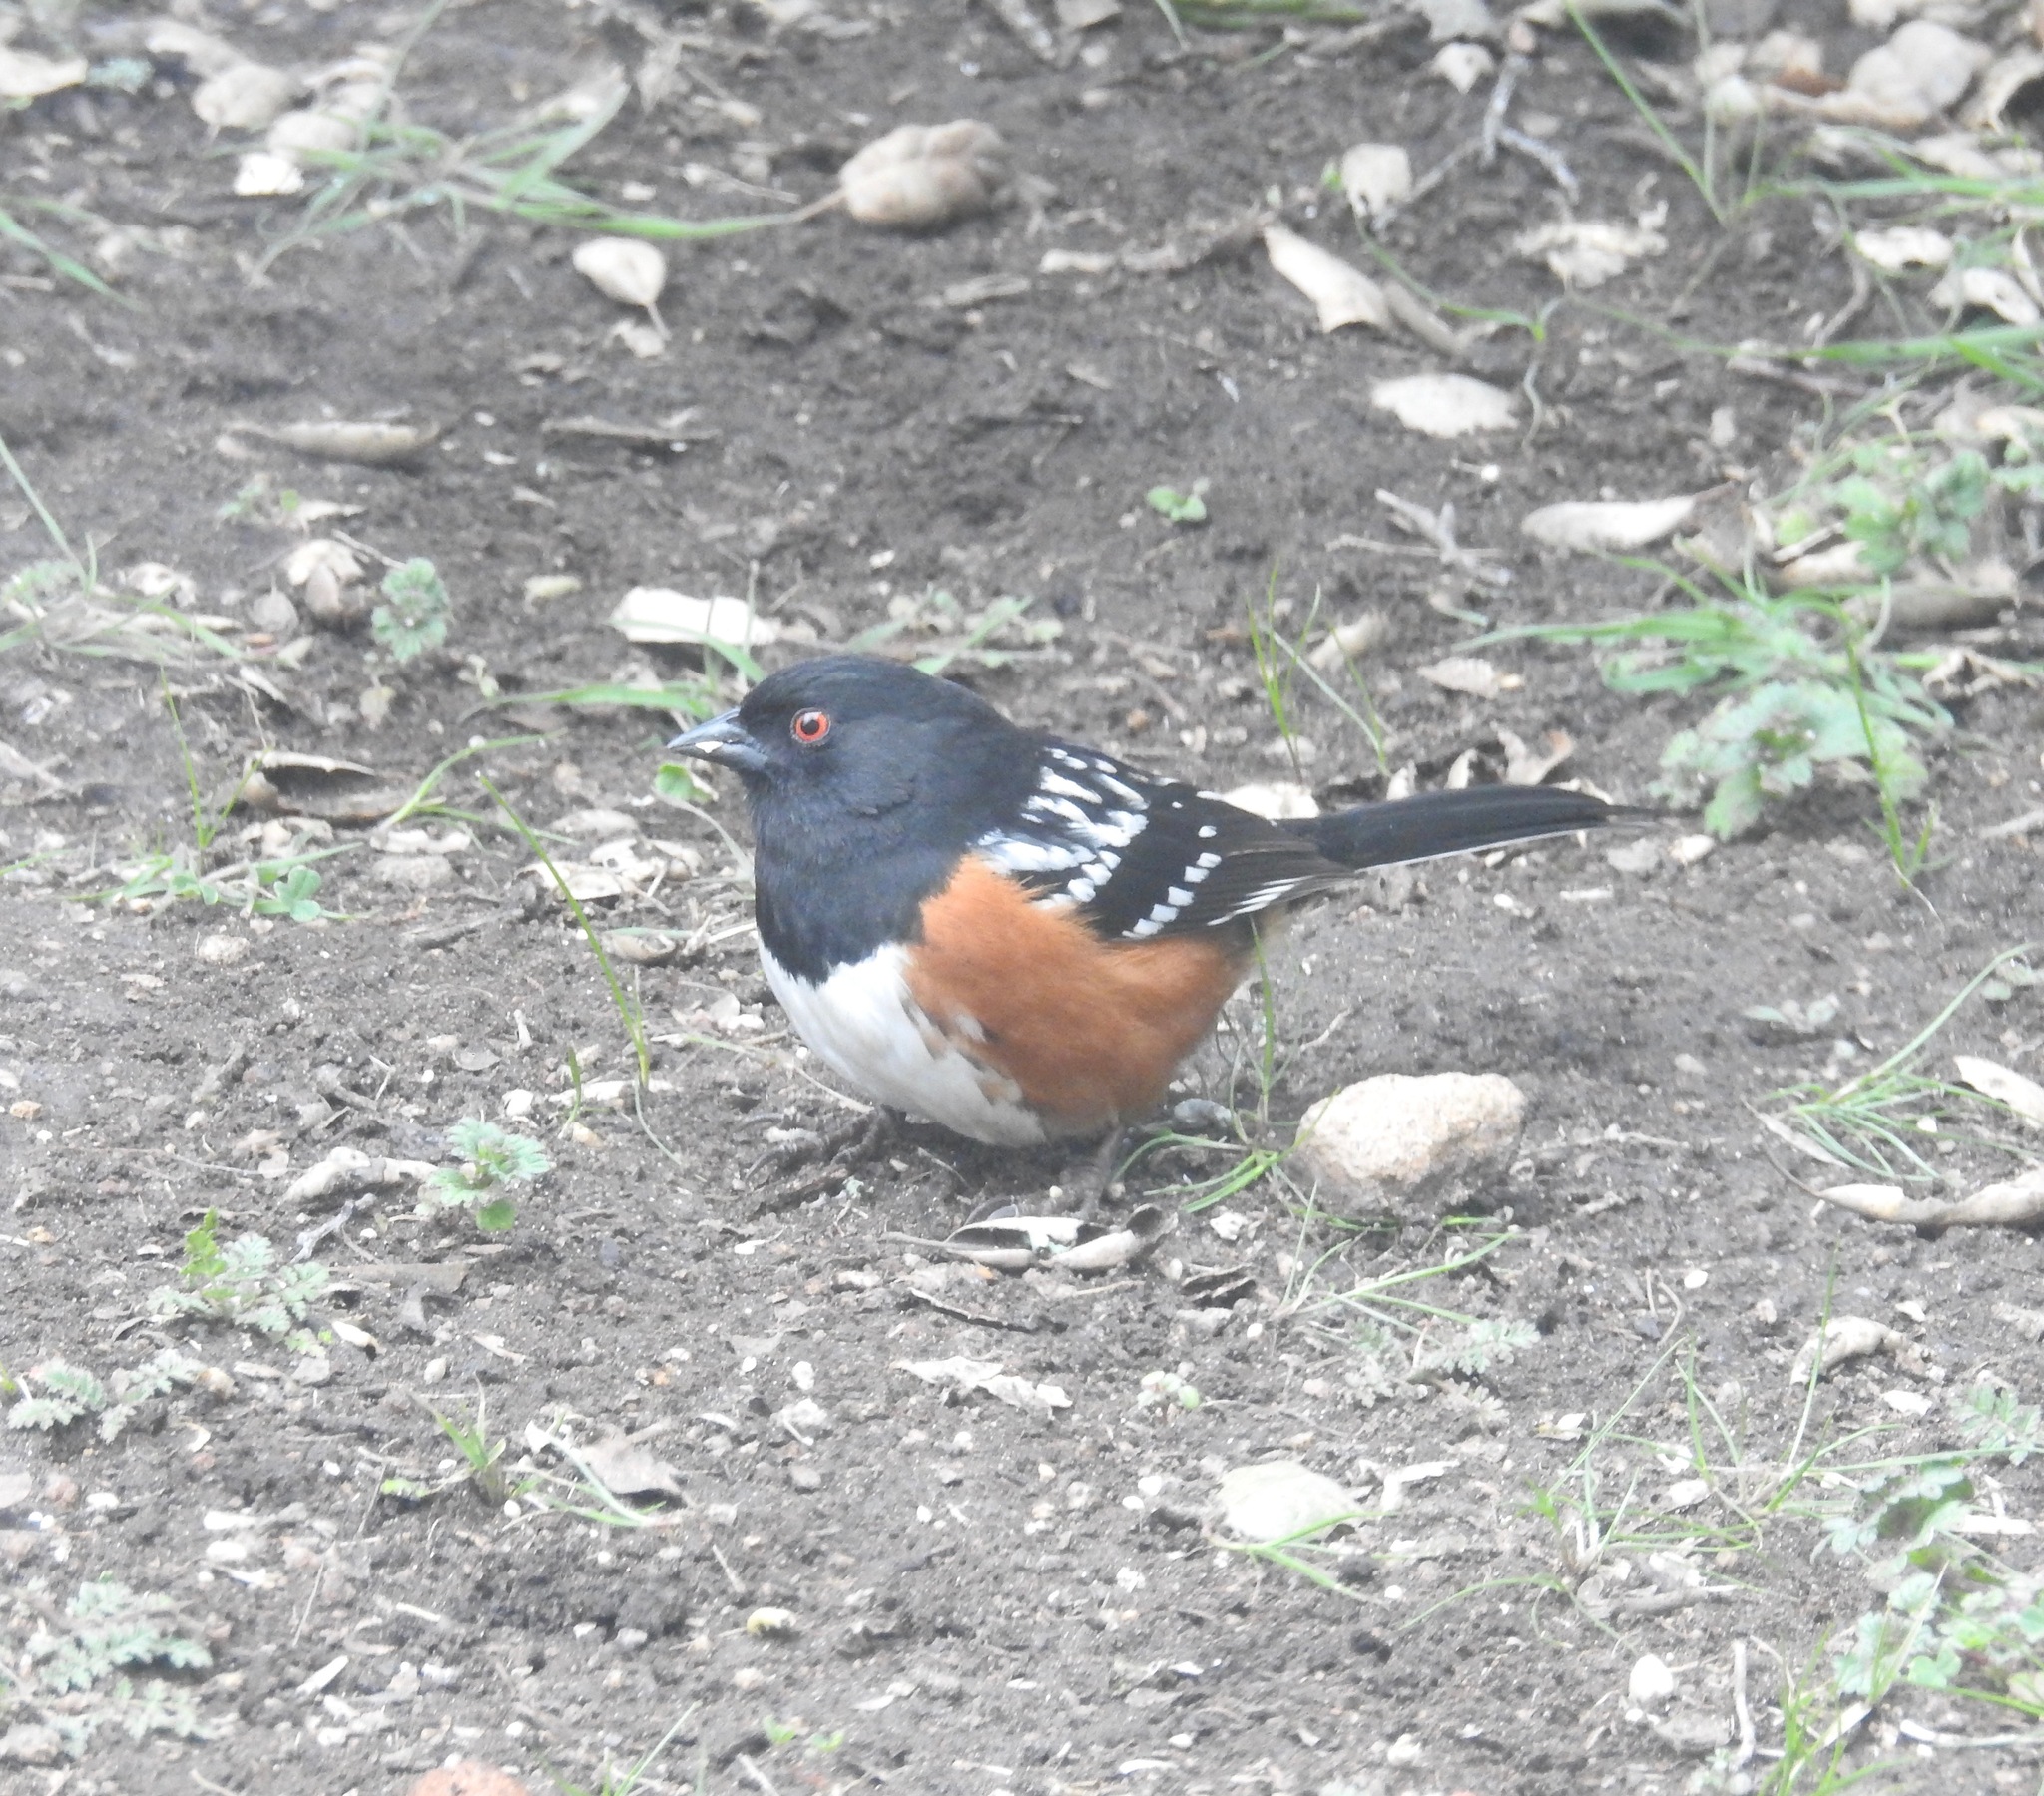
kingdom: Animalia
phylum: Chordata
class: Aves
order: Passeriformes
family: Passerellidae
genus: Pipilo
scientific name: Pipilo maculatus
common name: Spotted towhee
